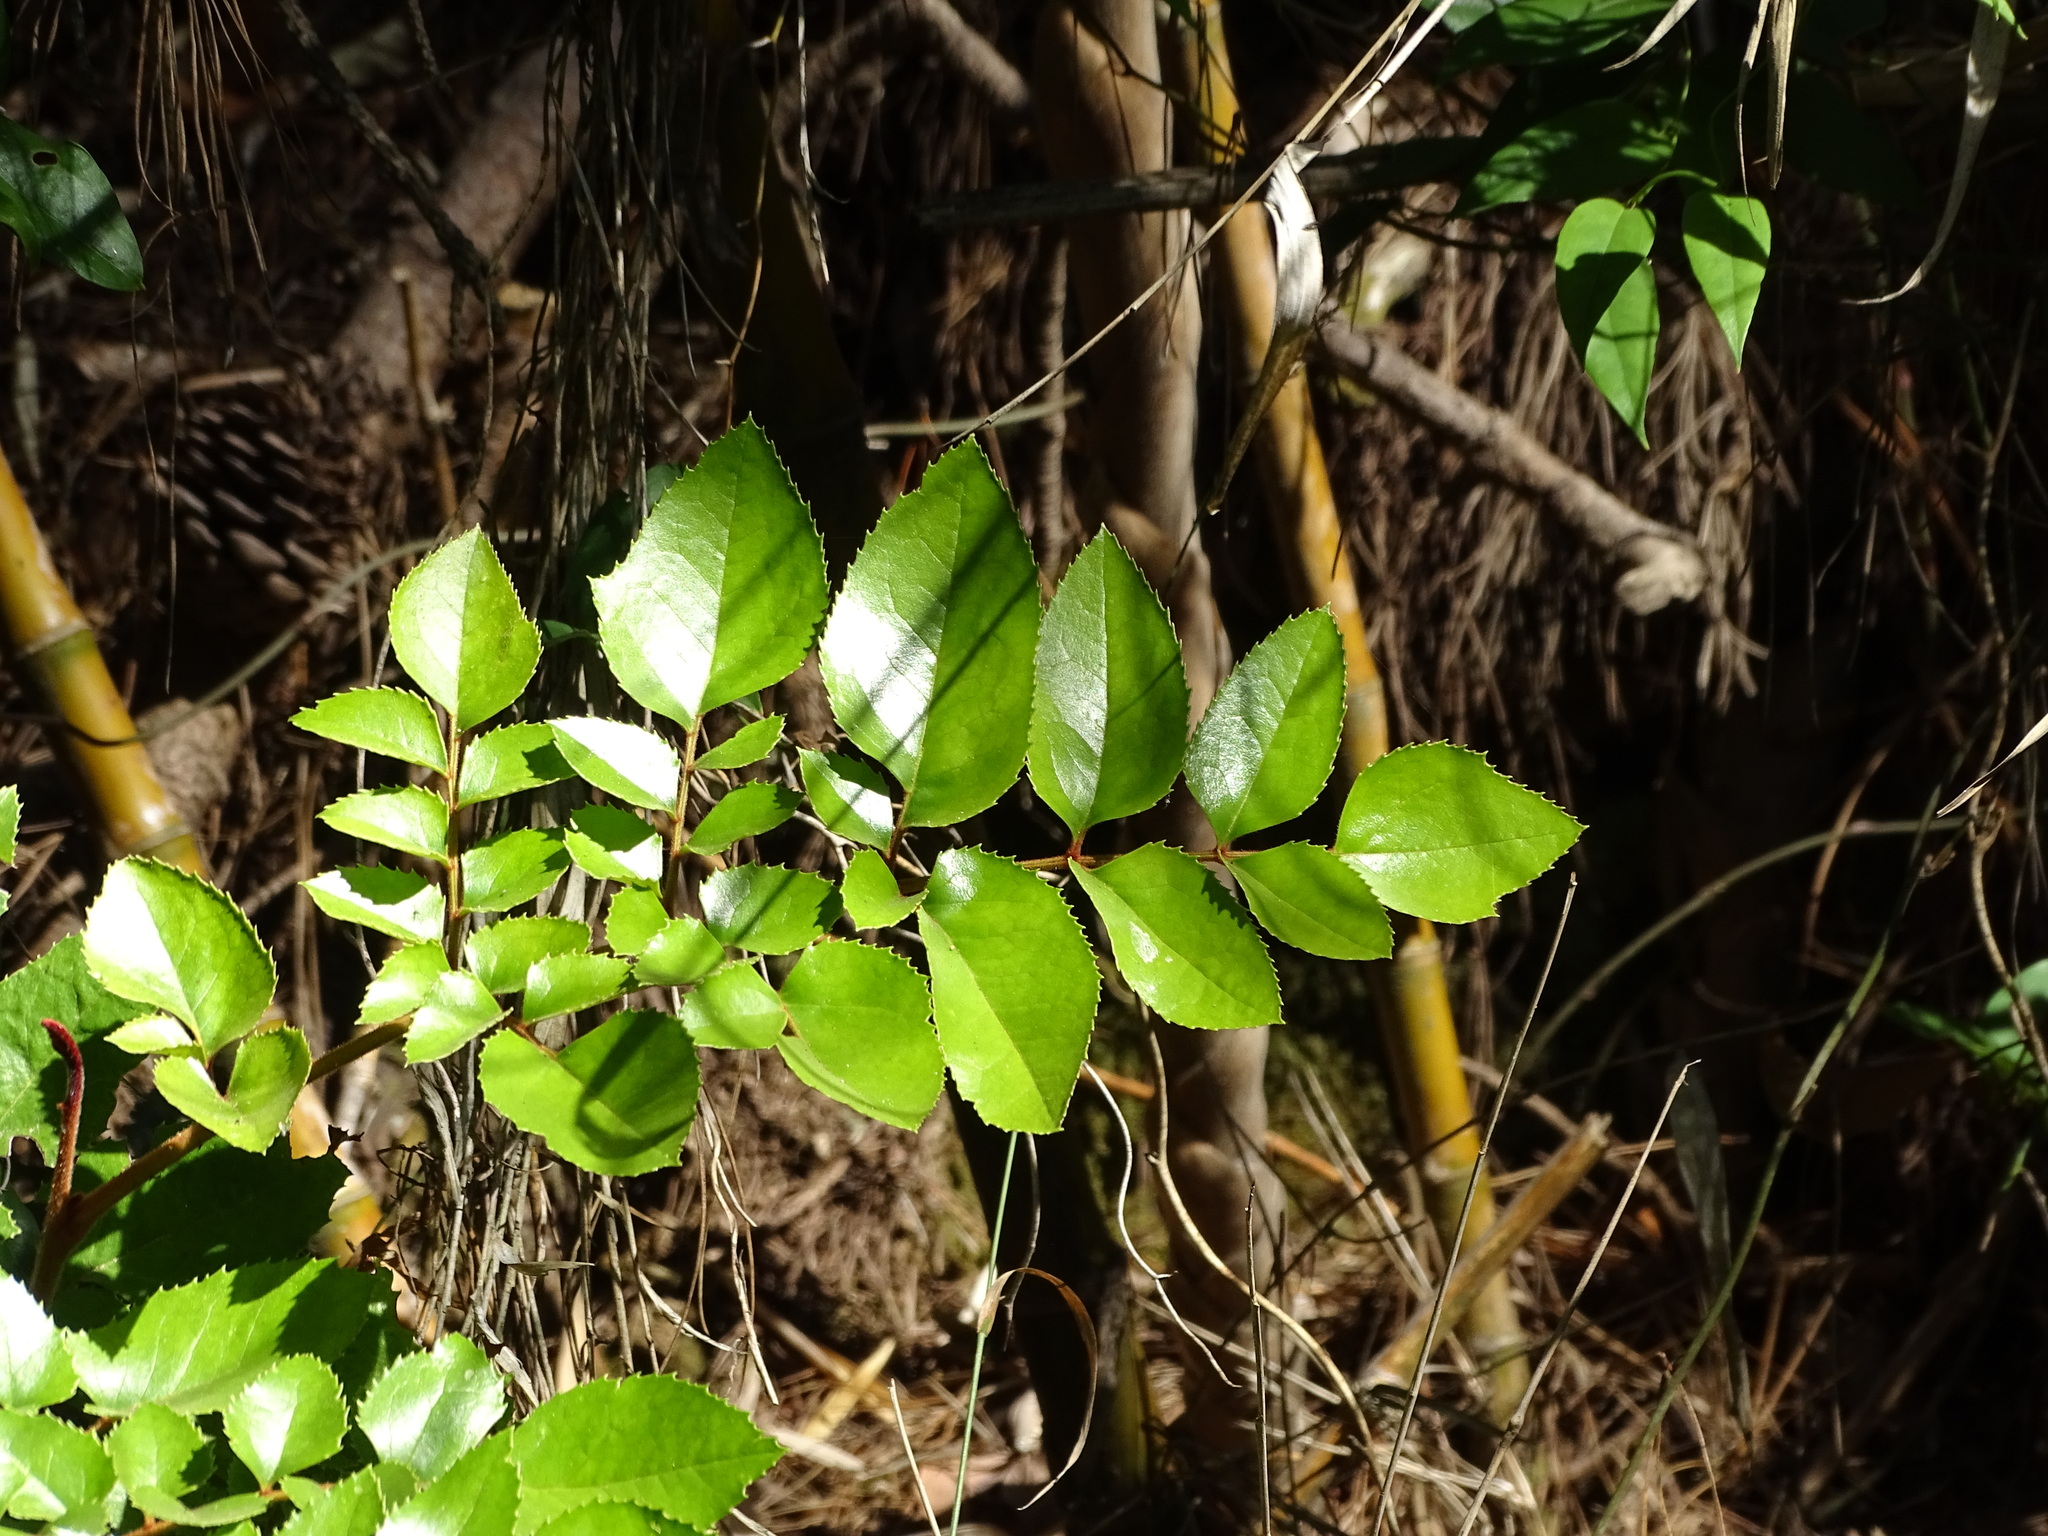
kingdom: Plantae
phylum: Tracheophyta
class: Magnoliopsida
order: Proteales
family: Proteaceae
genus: Gevuina
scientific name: Gevuina avellana
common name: Chilean hazel
